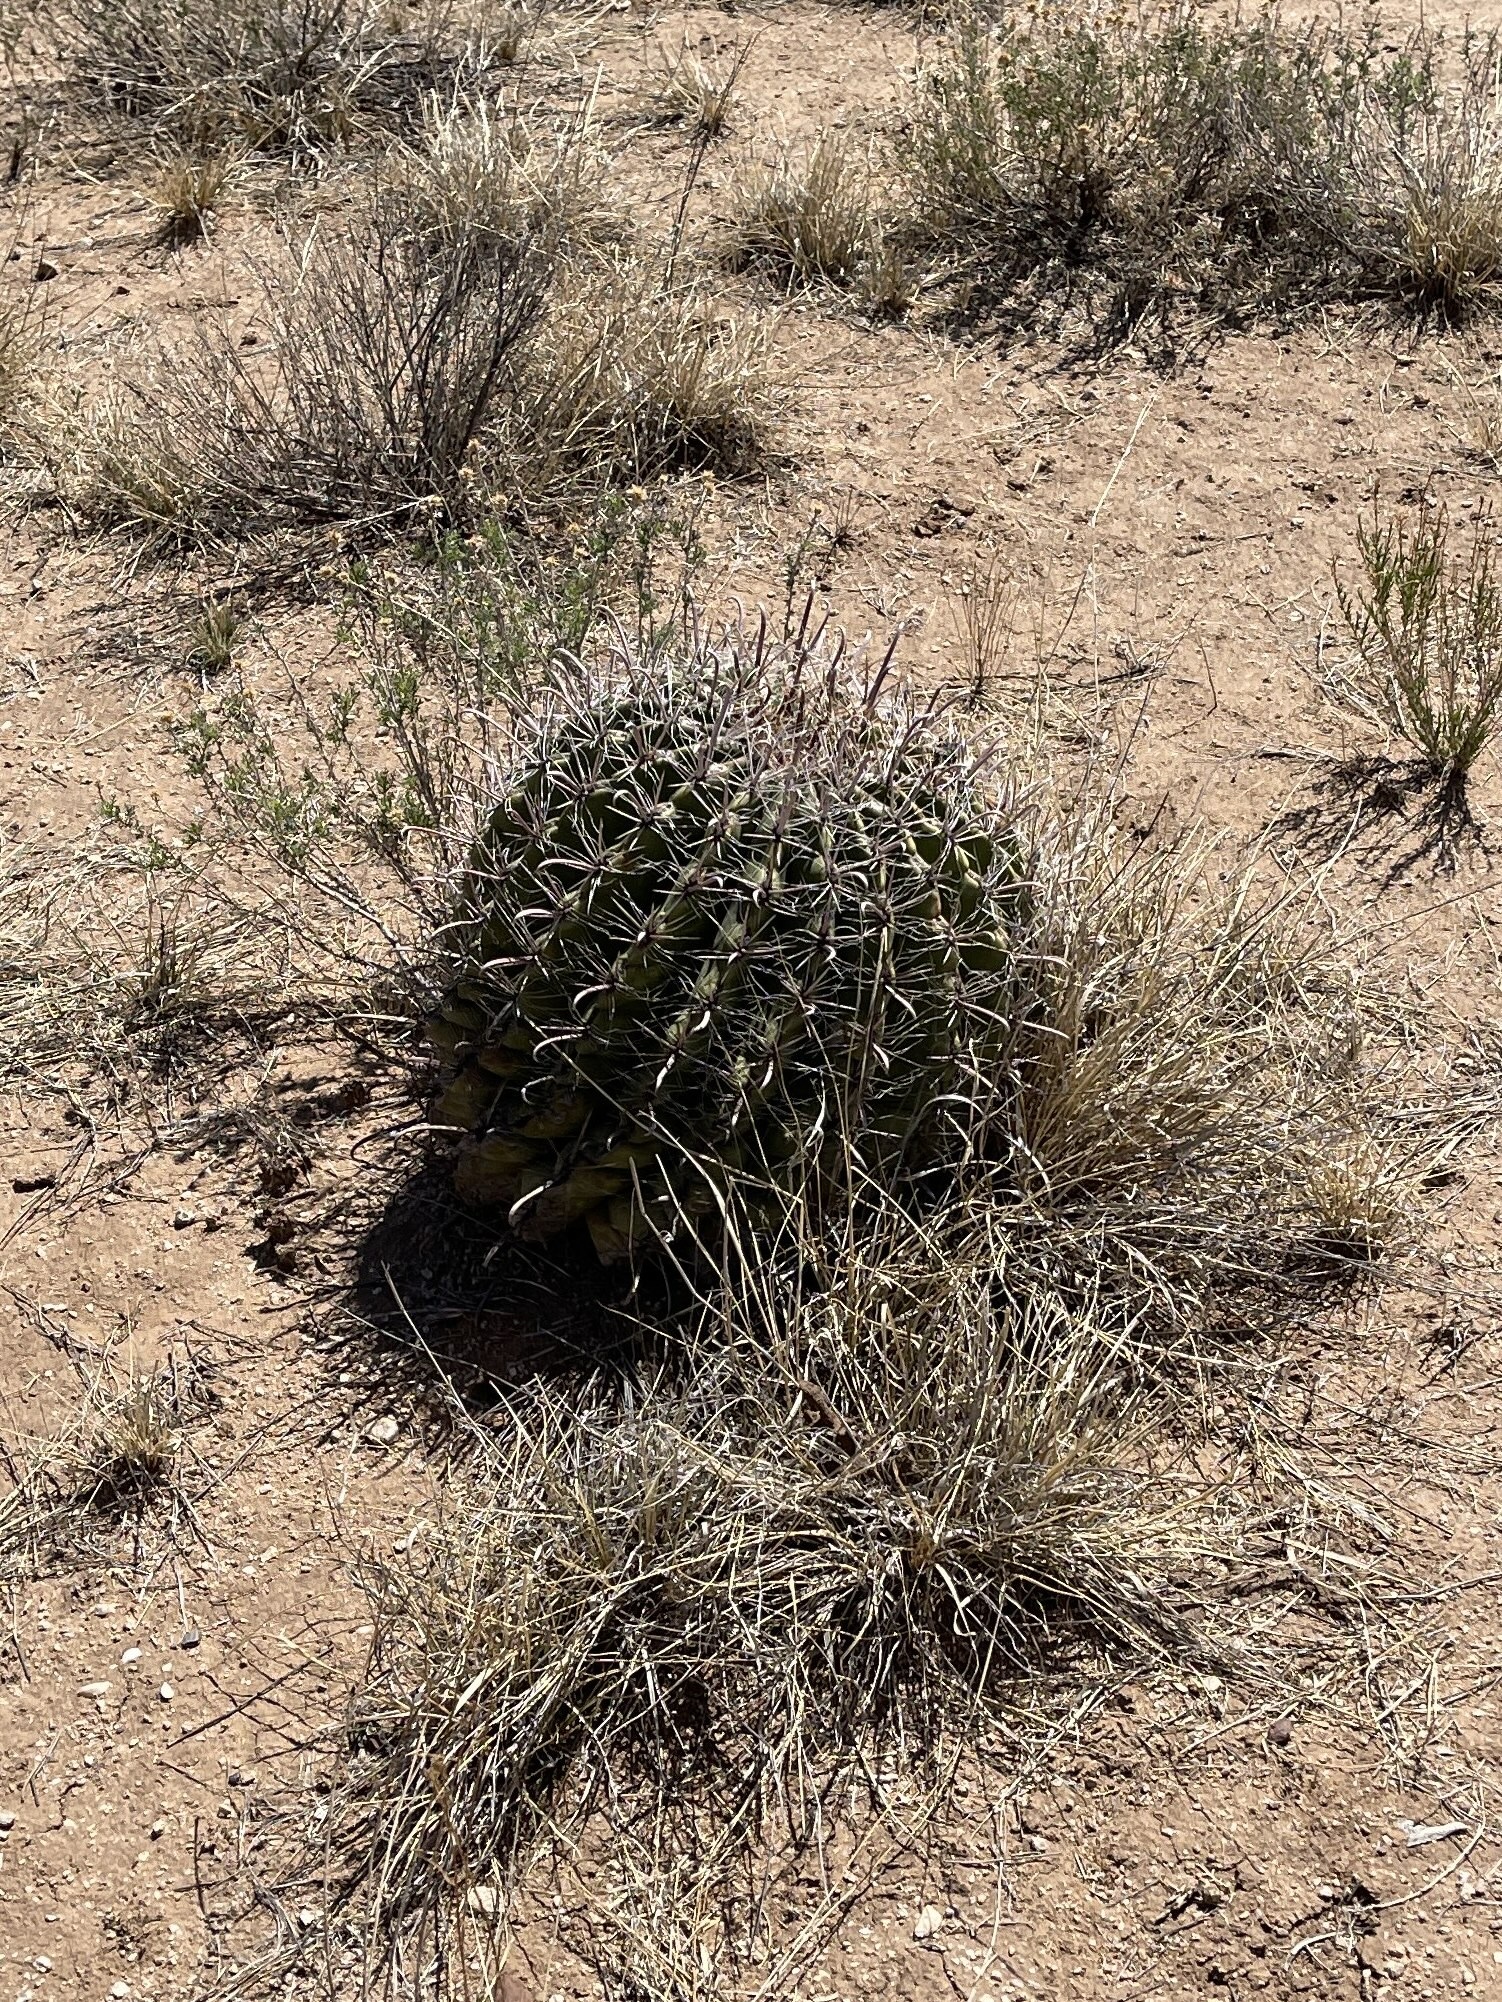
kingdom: Plantae
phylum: Tracheophyta
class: Magnoliopsida
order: Caryophyllales
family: Cactaceae
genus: Ferocactus
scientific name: Ferocactus wislizeni
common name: Candy barrel cactus
